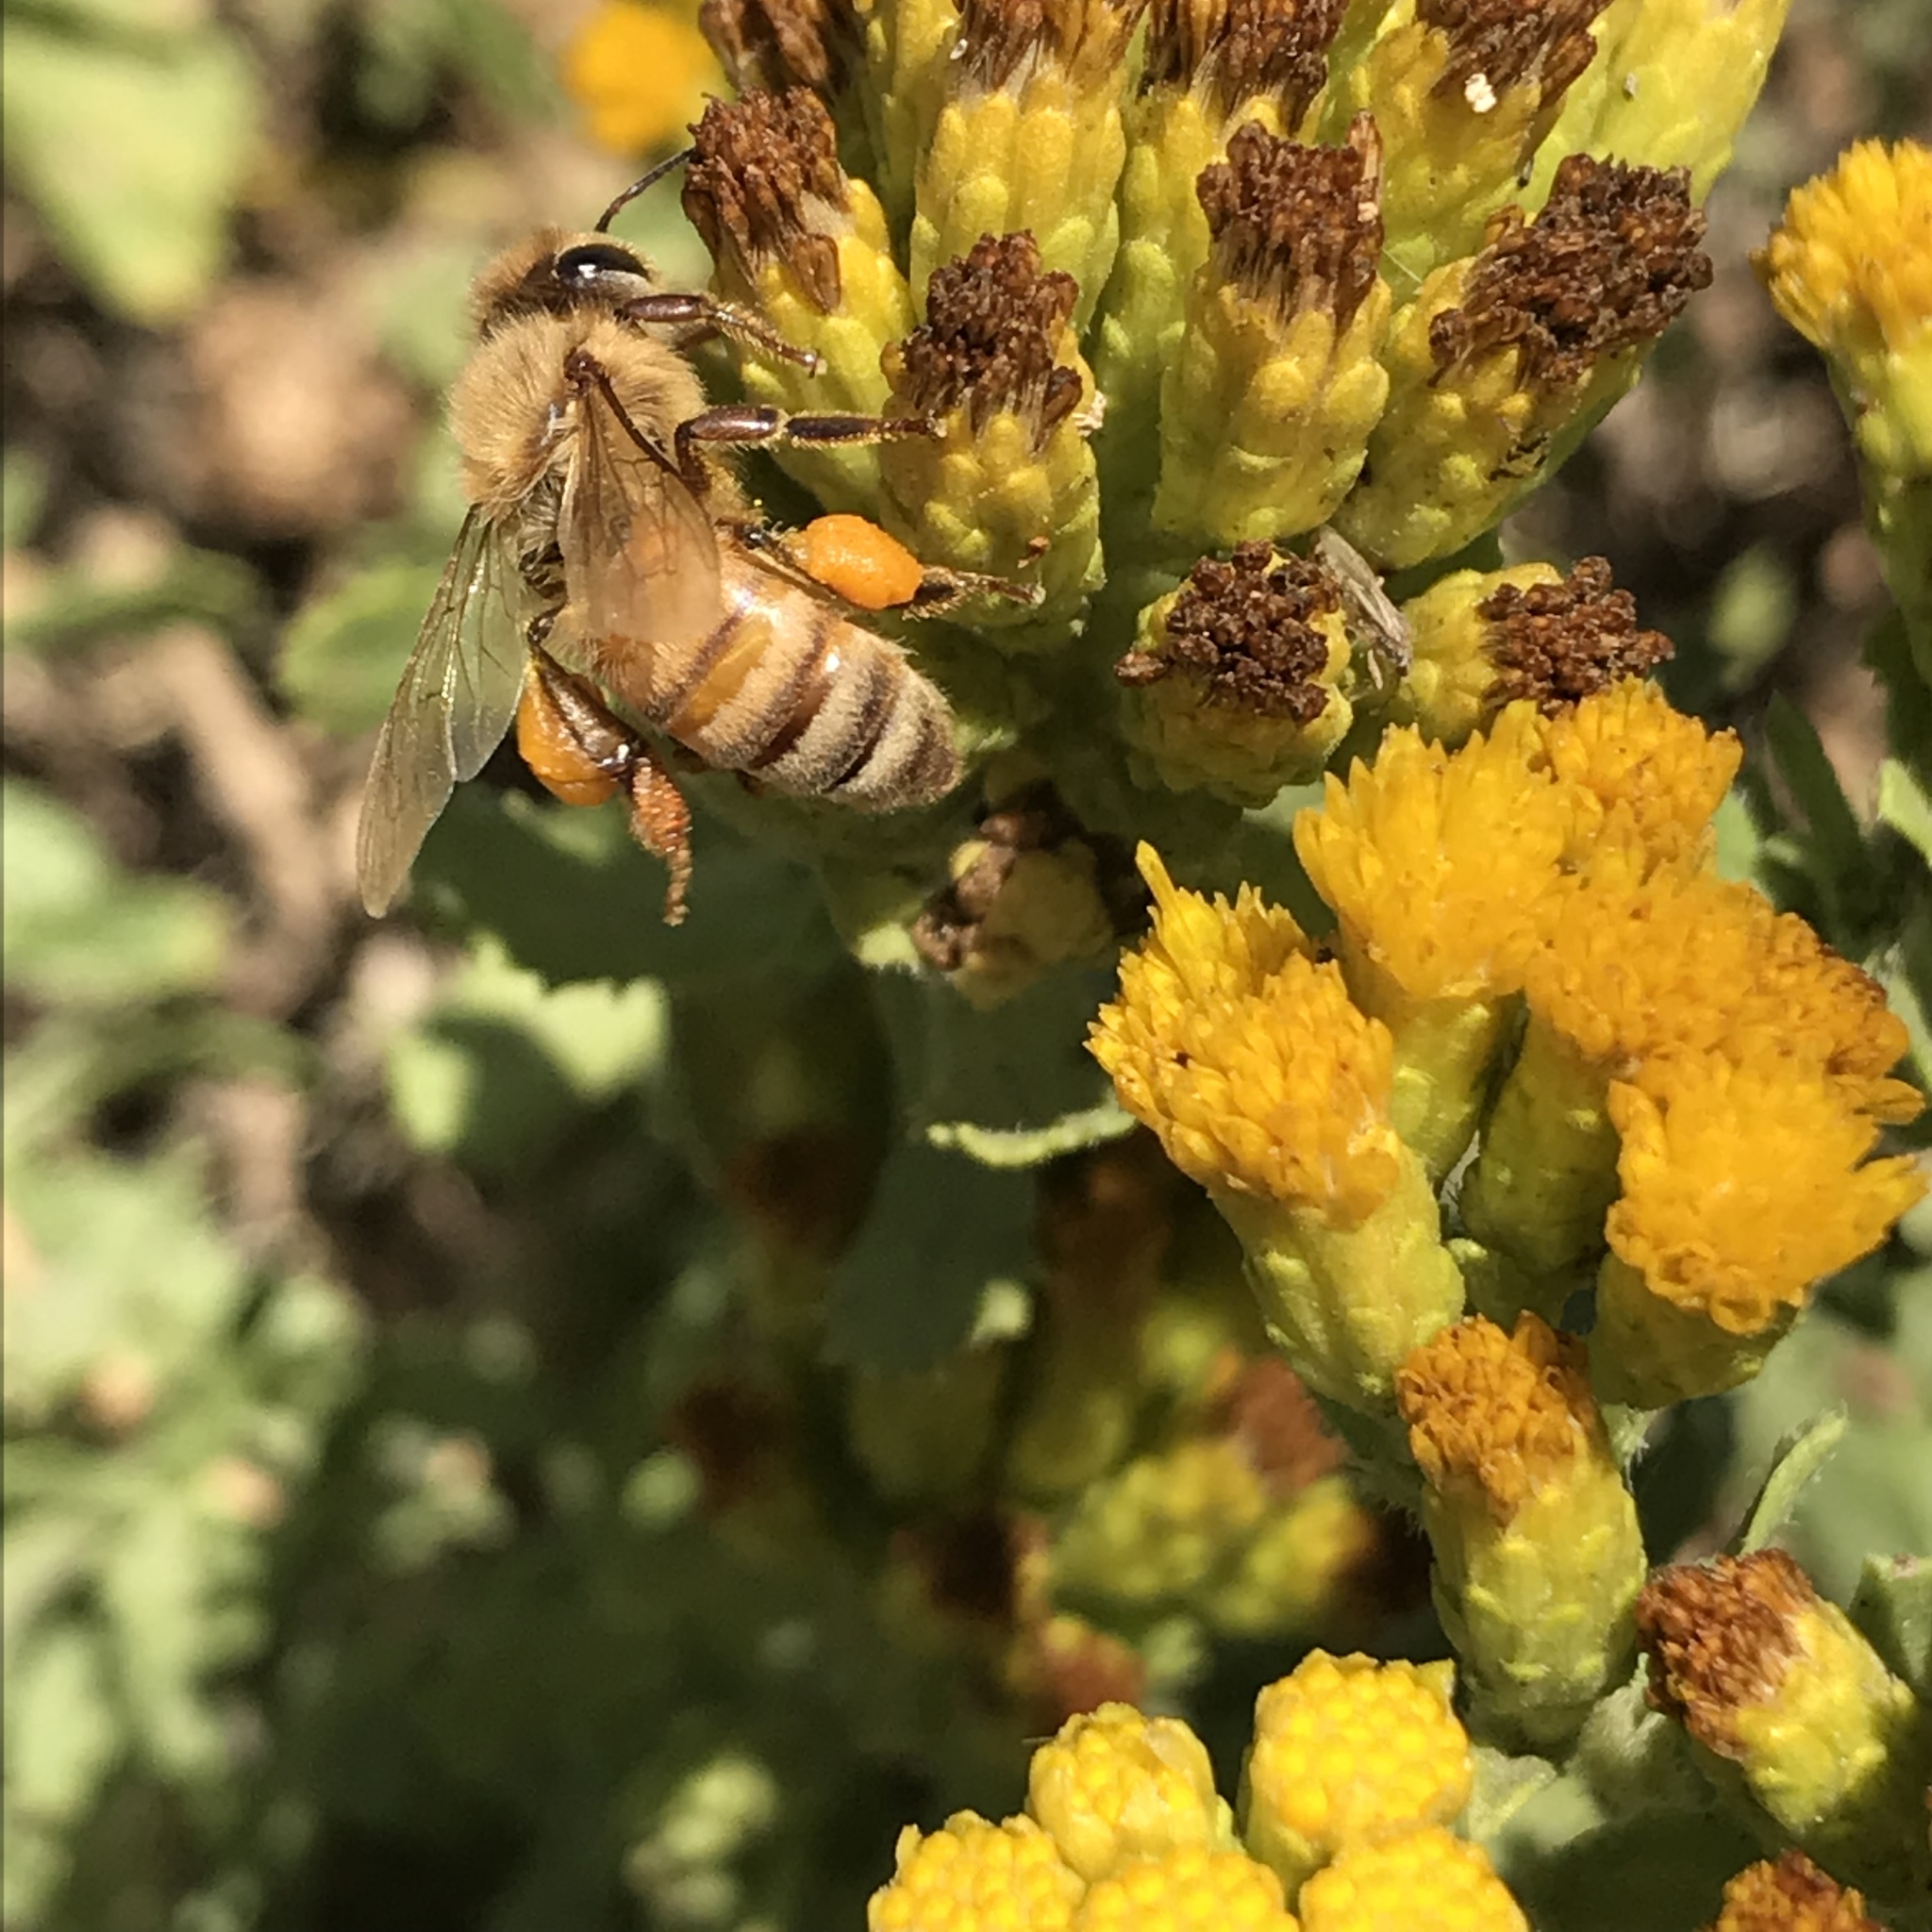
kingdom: Animalia
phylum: Arthropoda
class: Insecta
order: Hymenoptera
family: Apidae
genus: Apis
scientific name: Apis mellifera
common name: Honey bee
